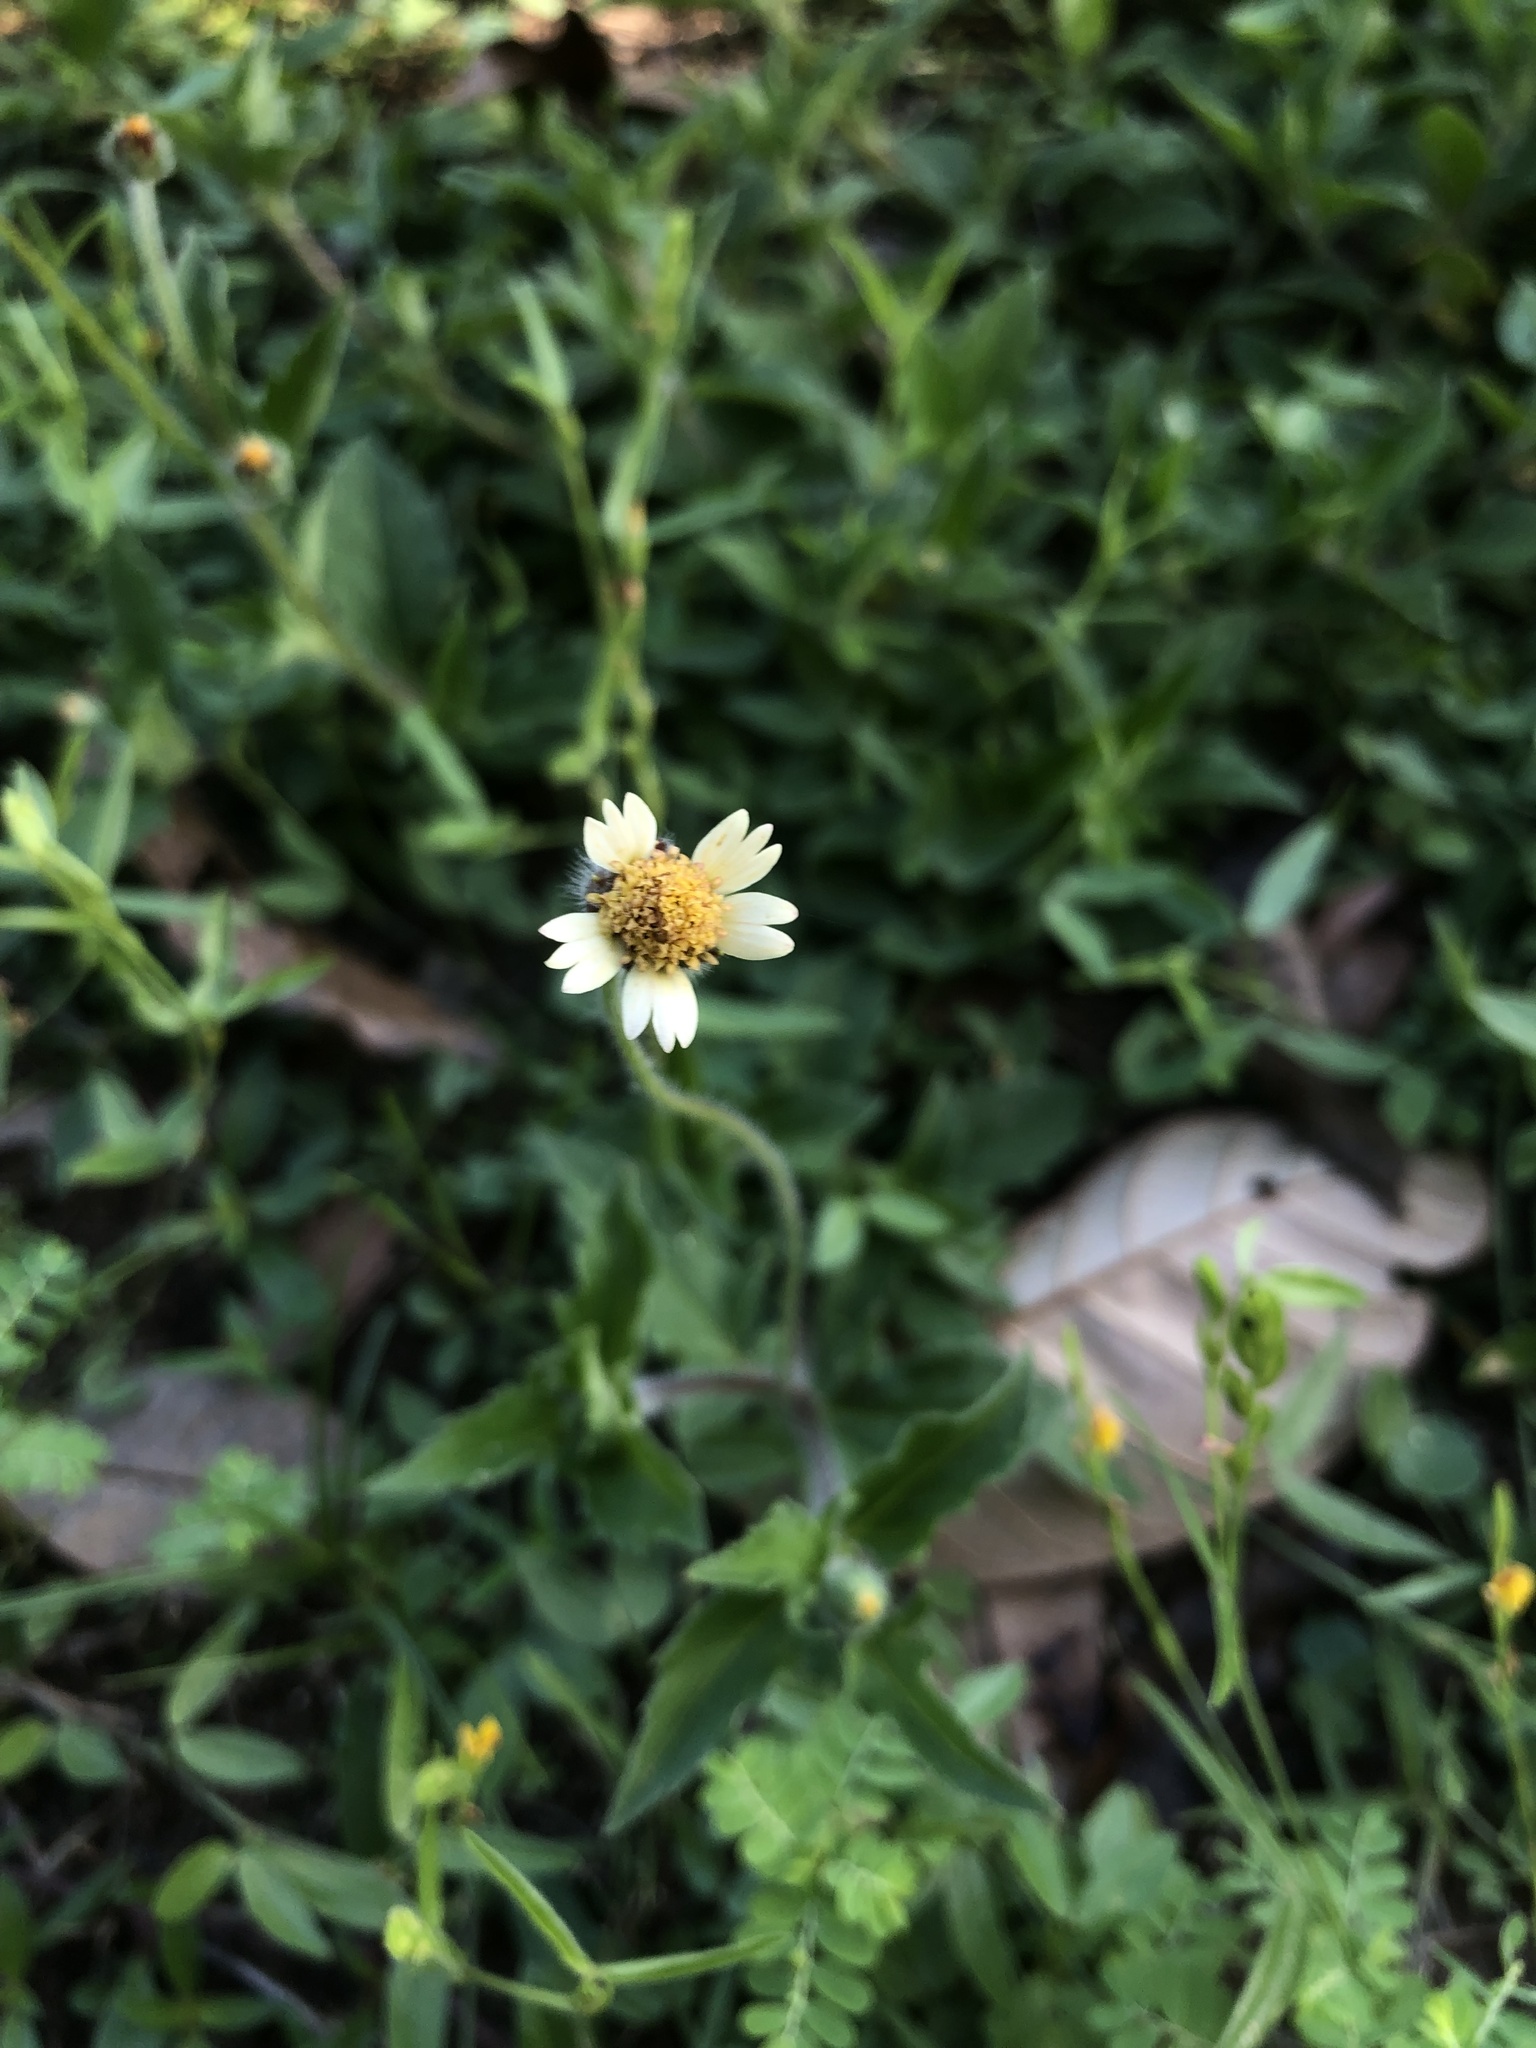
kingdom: Plantae
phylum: Tracheophyta
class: Magnoliopsida
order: Asterales
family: Asteraceae
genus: Tridax
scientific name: Tridax procumbens
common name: Coatbuttons
